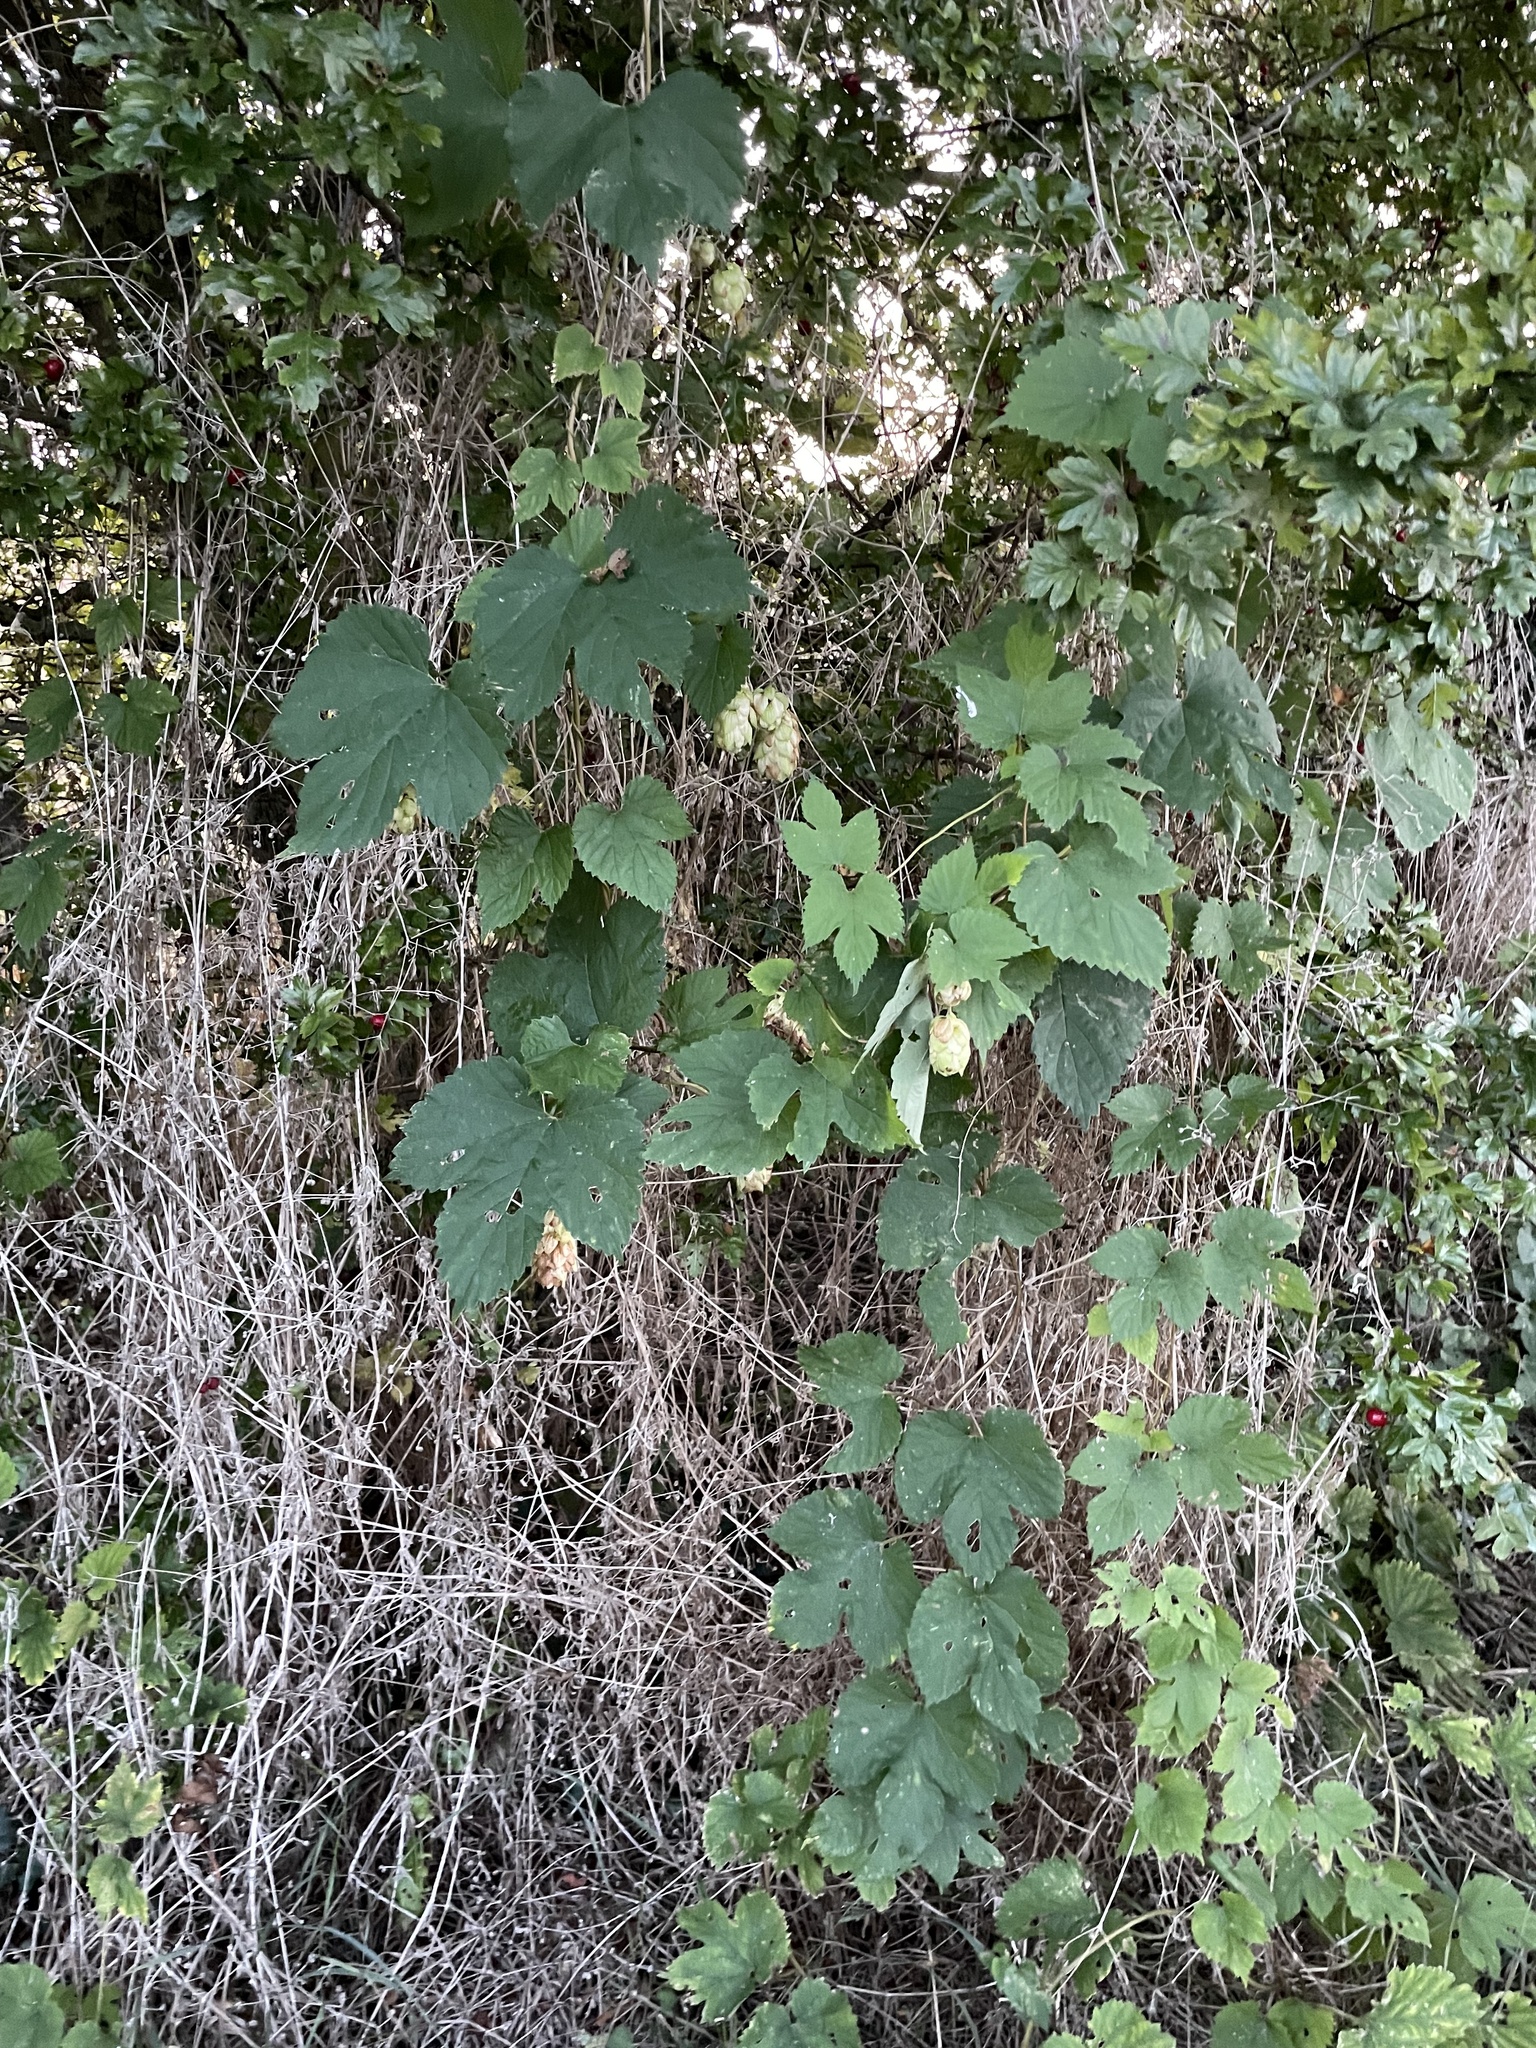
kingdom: Plantae
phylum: Tracheophyta
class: Magnoliopsida
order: Rosales
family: Cannabaceae
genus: Humulus
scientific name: Humulus lupulus
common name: Hop
